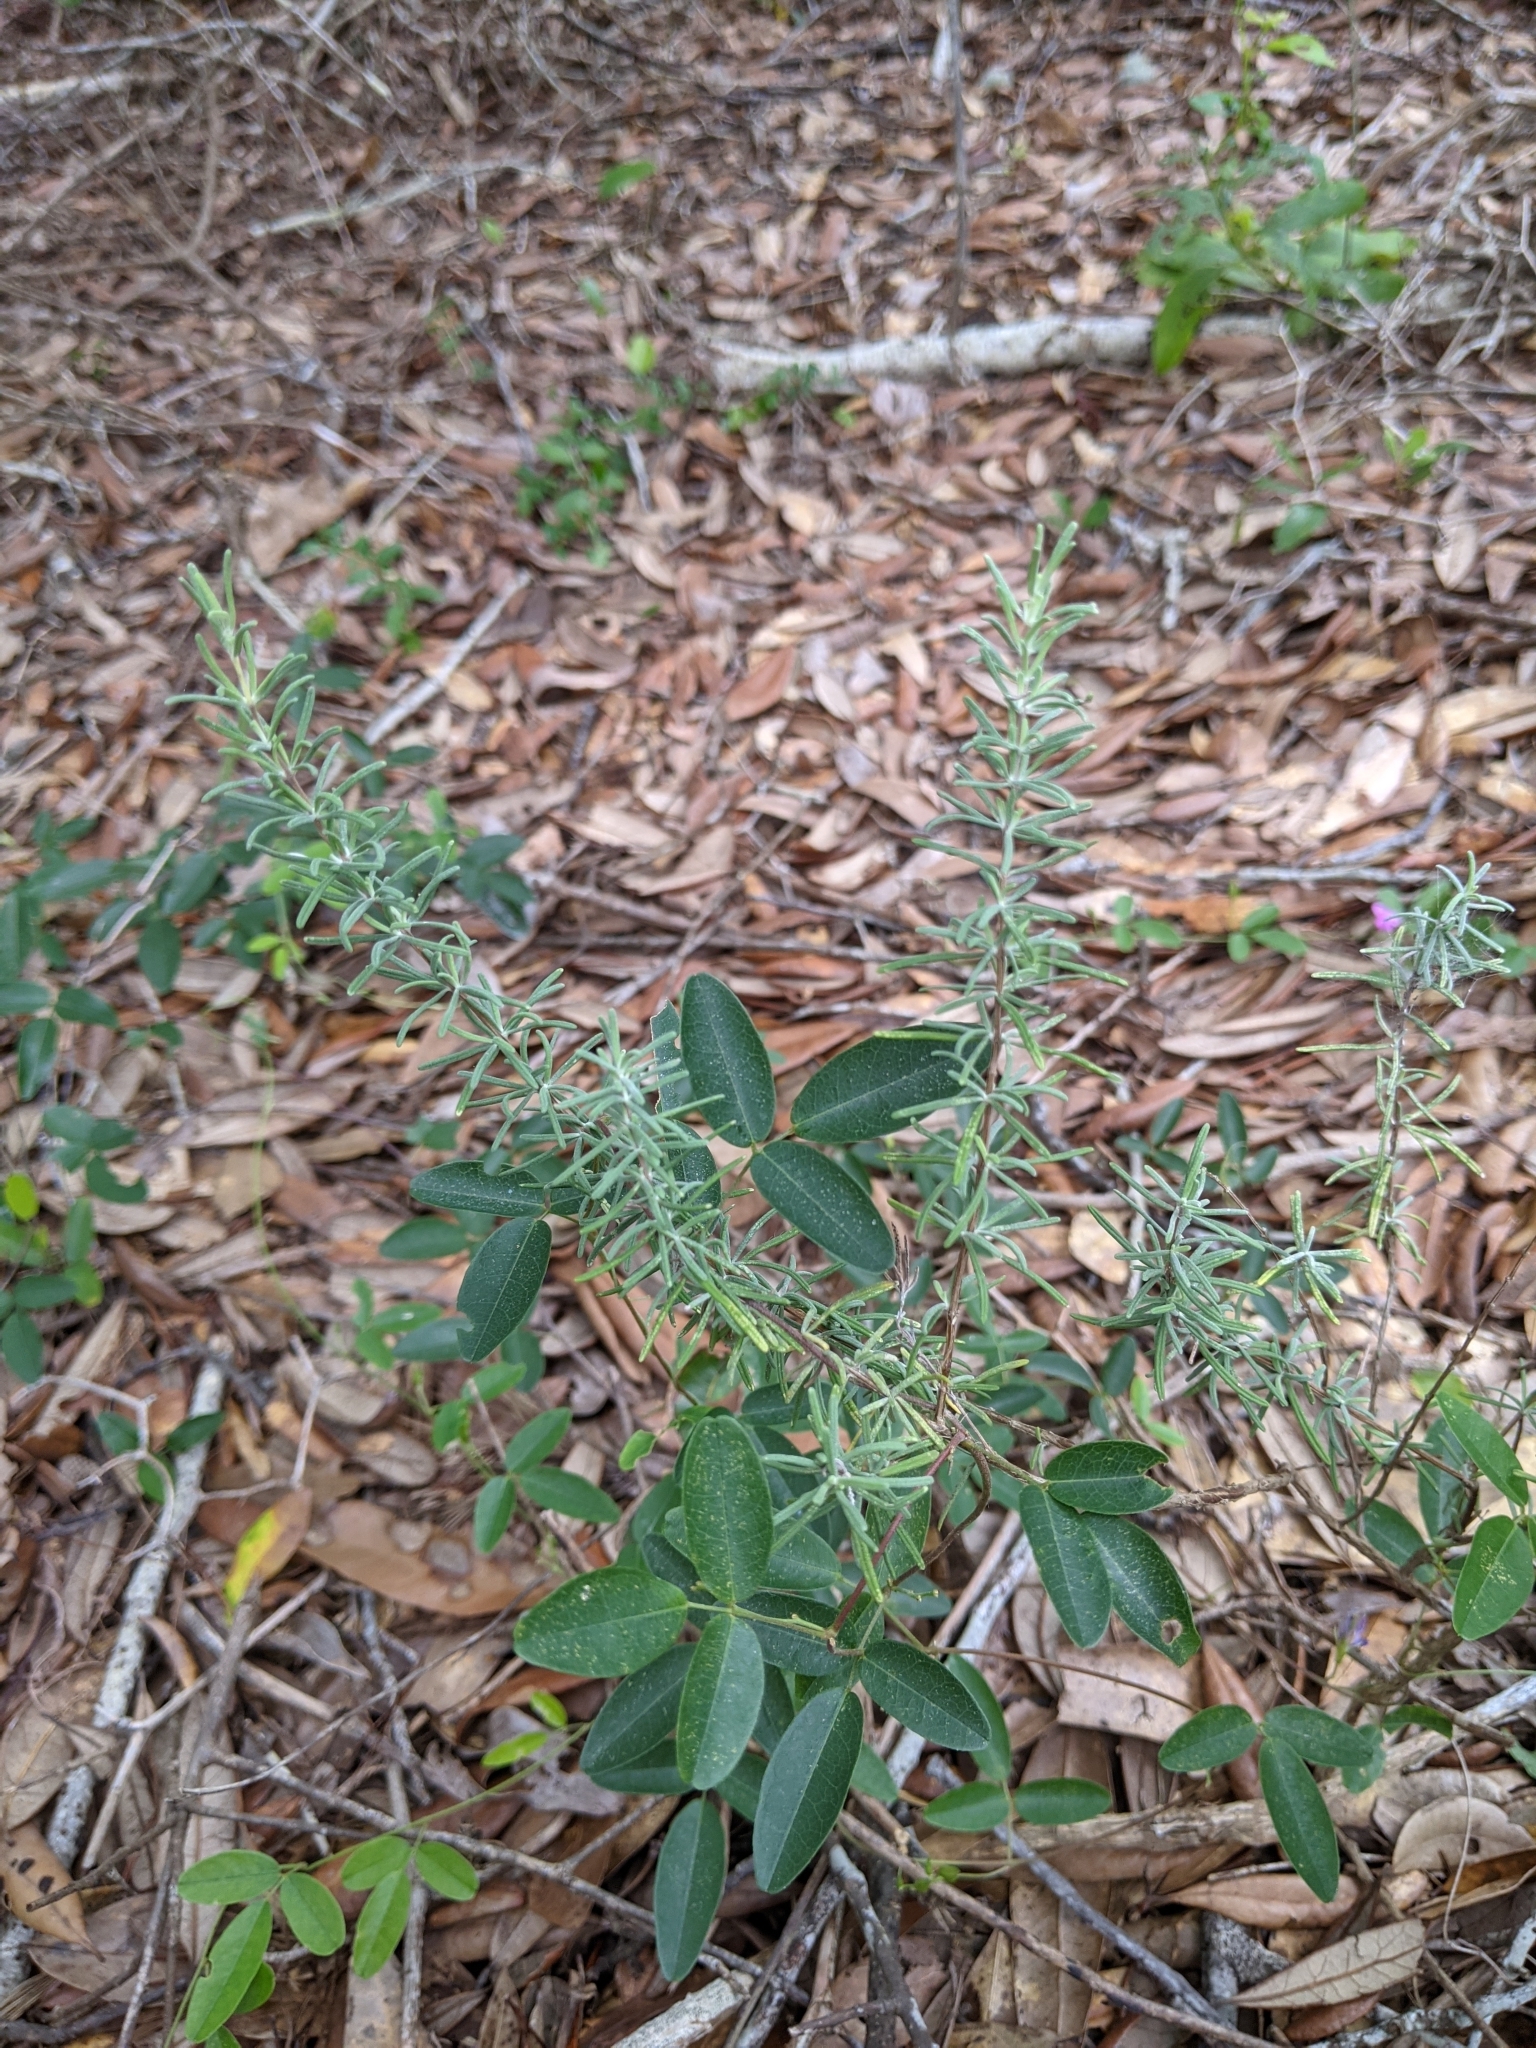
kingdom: Plantae
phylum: Tracheophyta
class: Magnoliopsida
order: Lamiales
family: Lamiaceae
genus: Conradina
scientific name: Conradina canescens
